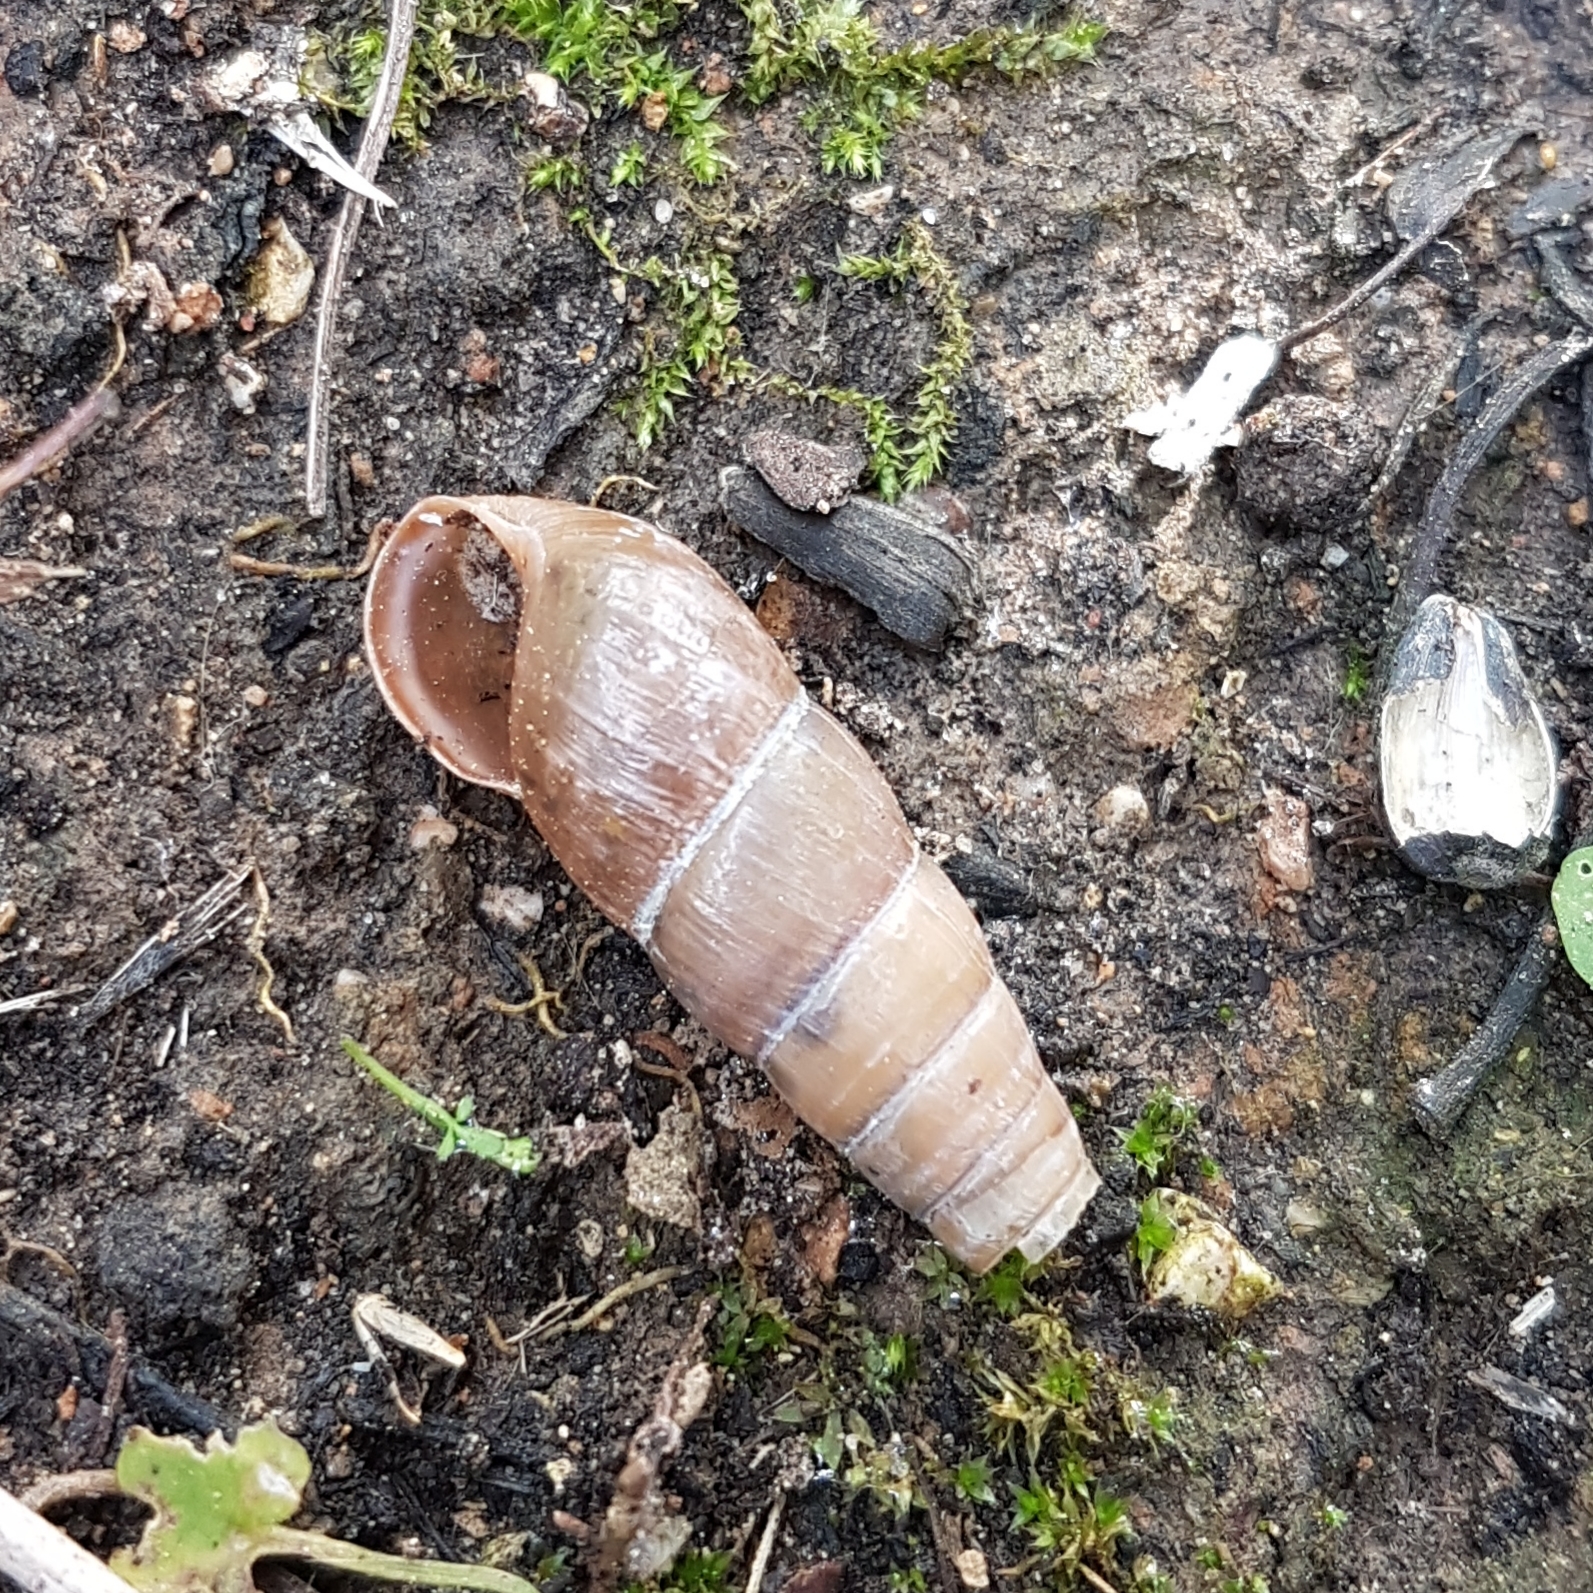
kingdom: Animalia
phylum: Mollusca
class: Gastropoda
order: Stylommatophora
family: Achatinidae
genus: Rumina
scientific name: Rumina decollata
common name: Decollate snail
